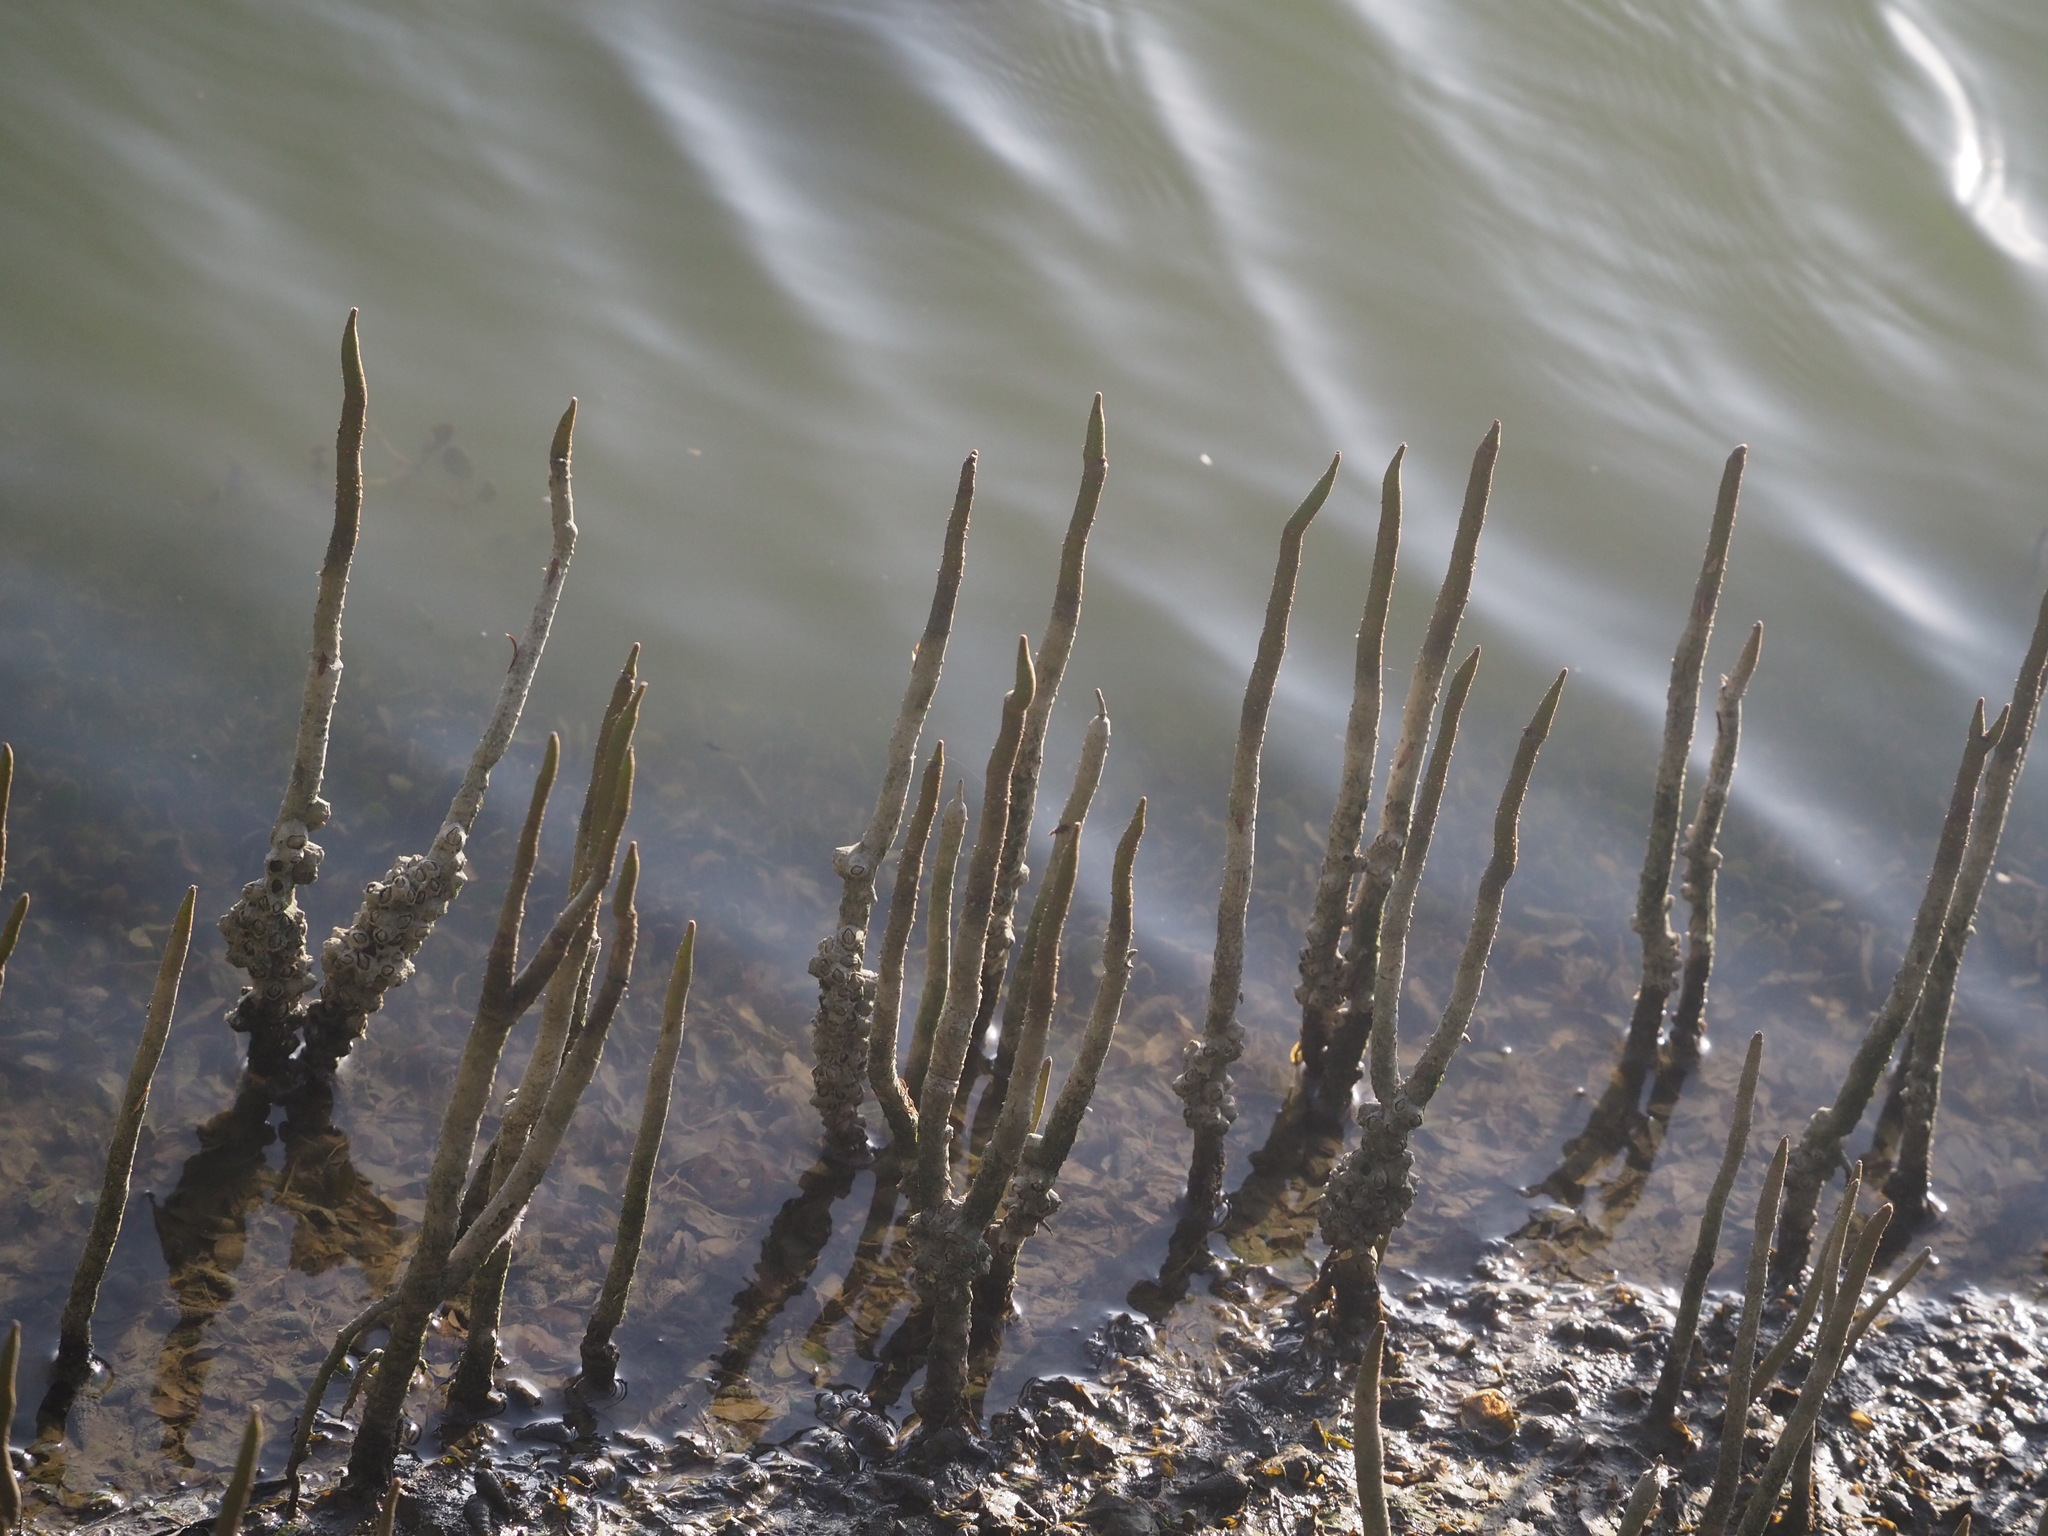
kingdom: Plantae
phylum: Tracheophyta
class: Magnoliopsida
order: Lamiales
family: Acanthaceae
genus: Avicennia
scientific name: Avicennia marina
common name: Gray mangrove
